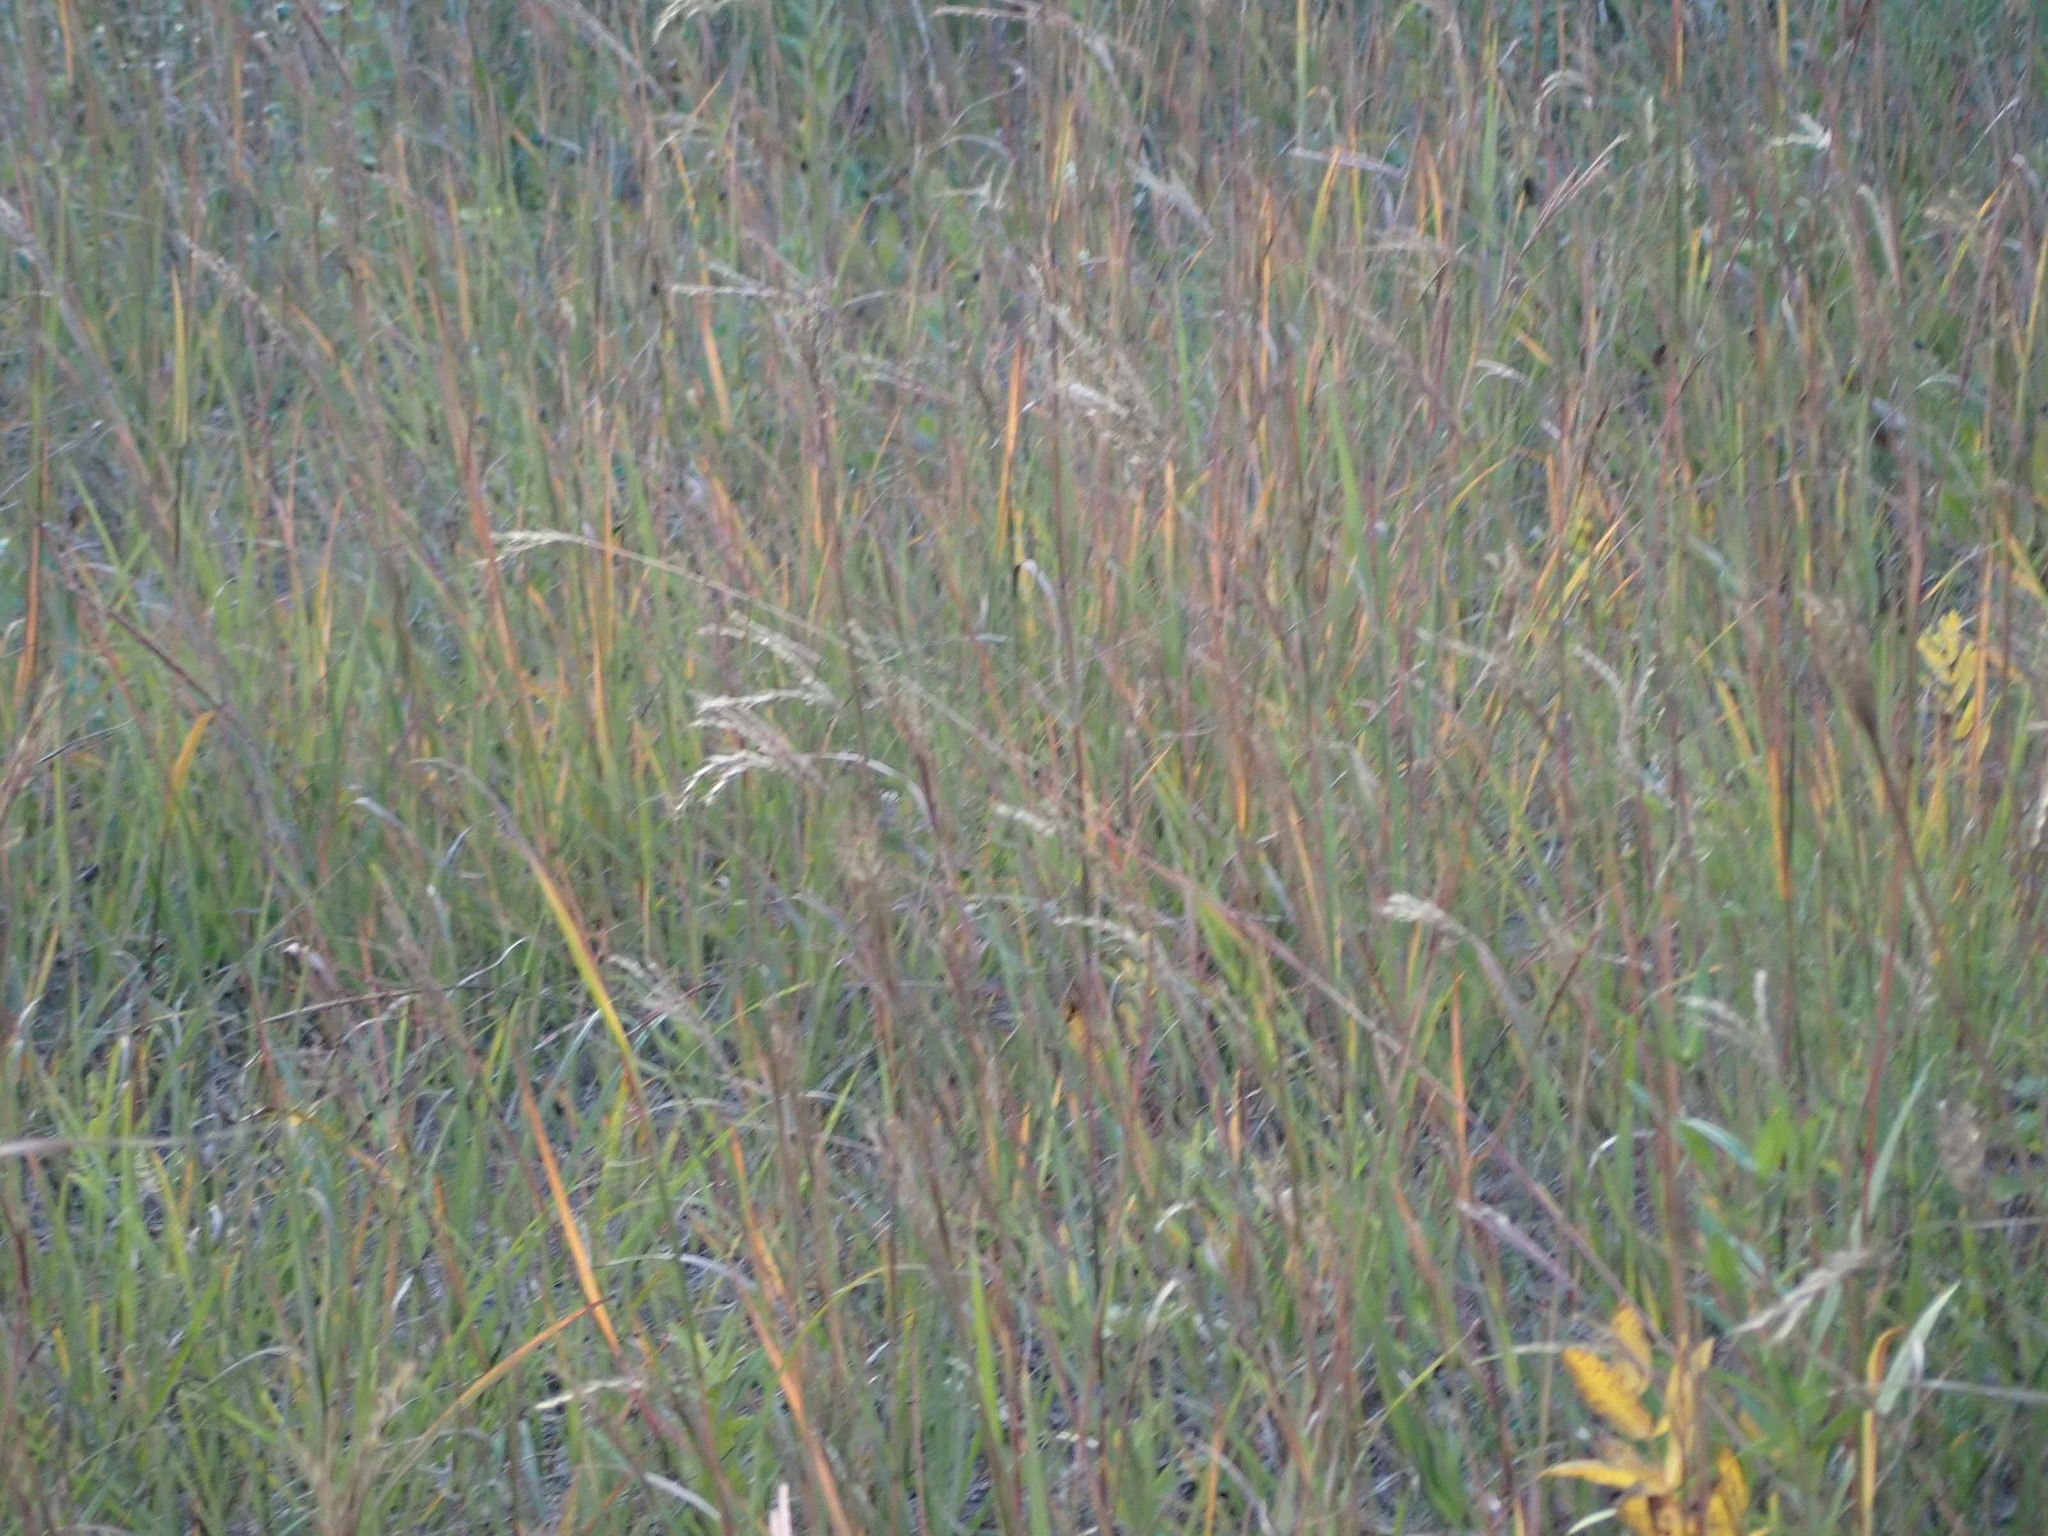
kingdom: Plantae
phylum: Tracheophyta
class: Liliopsida
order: Poales
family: Poaceae
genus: Andropogon
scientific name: Andropogon gerardi
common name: Big bluestem
